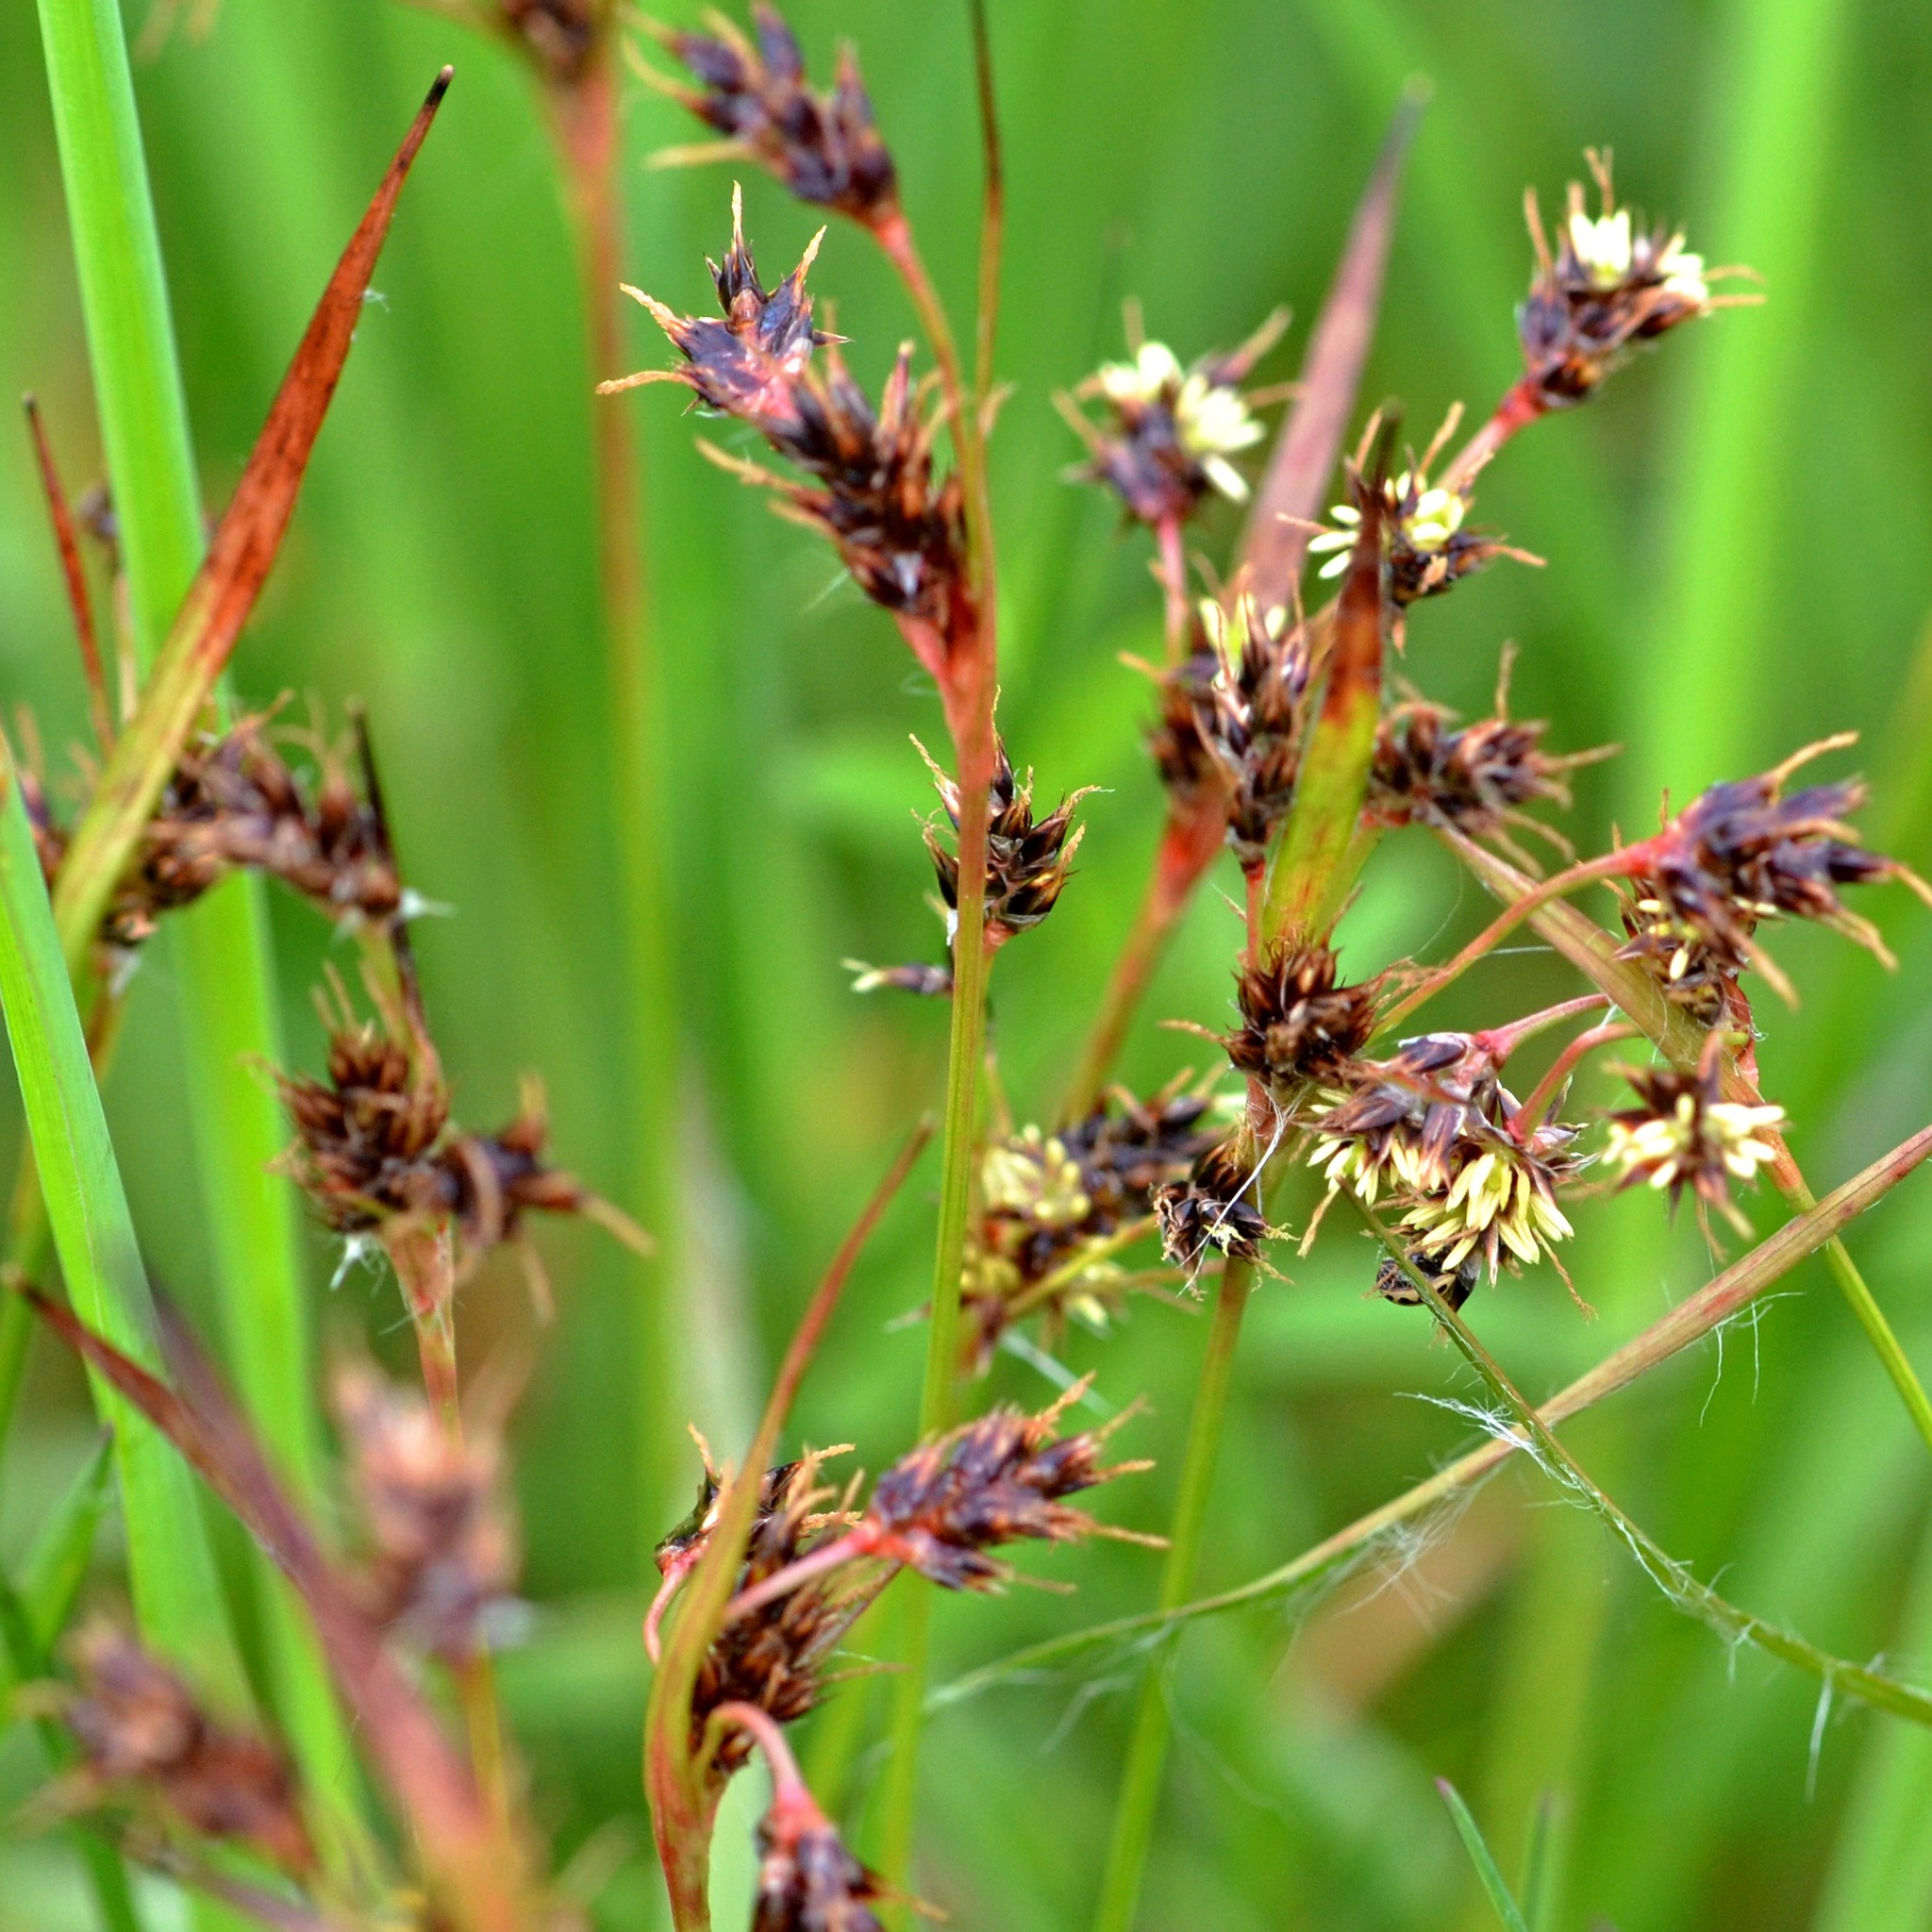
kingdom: Plantae
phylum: Tracheophyta
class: Liliopsida
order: Poales
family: Juncaceae
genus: Luzula
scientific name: Luzula campestris
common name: Field wood-rush
